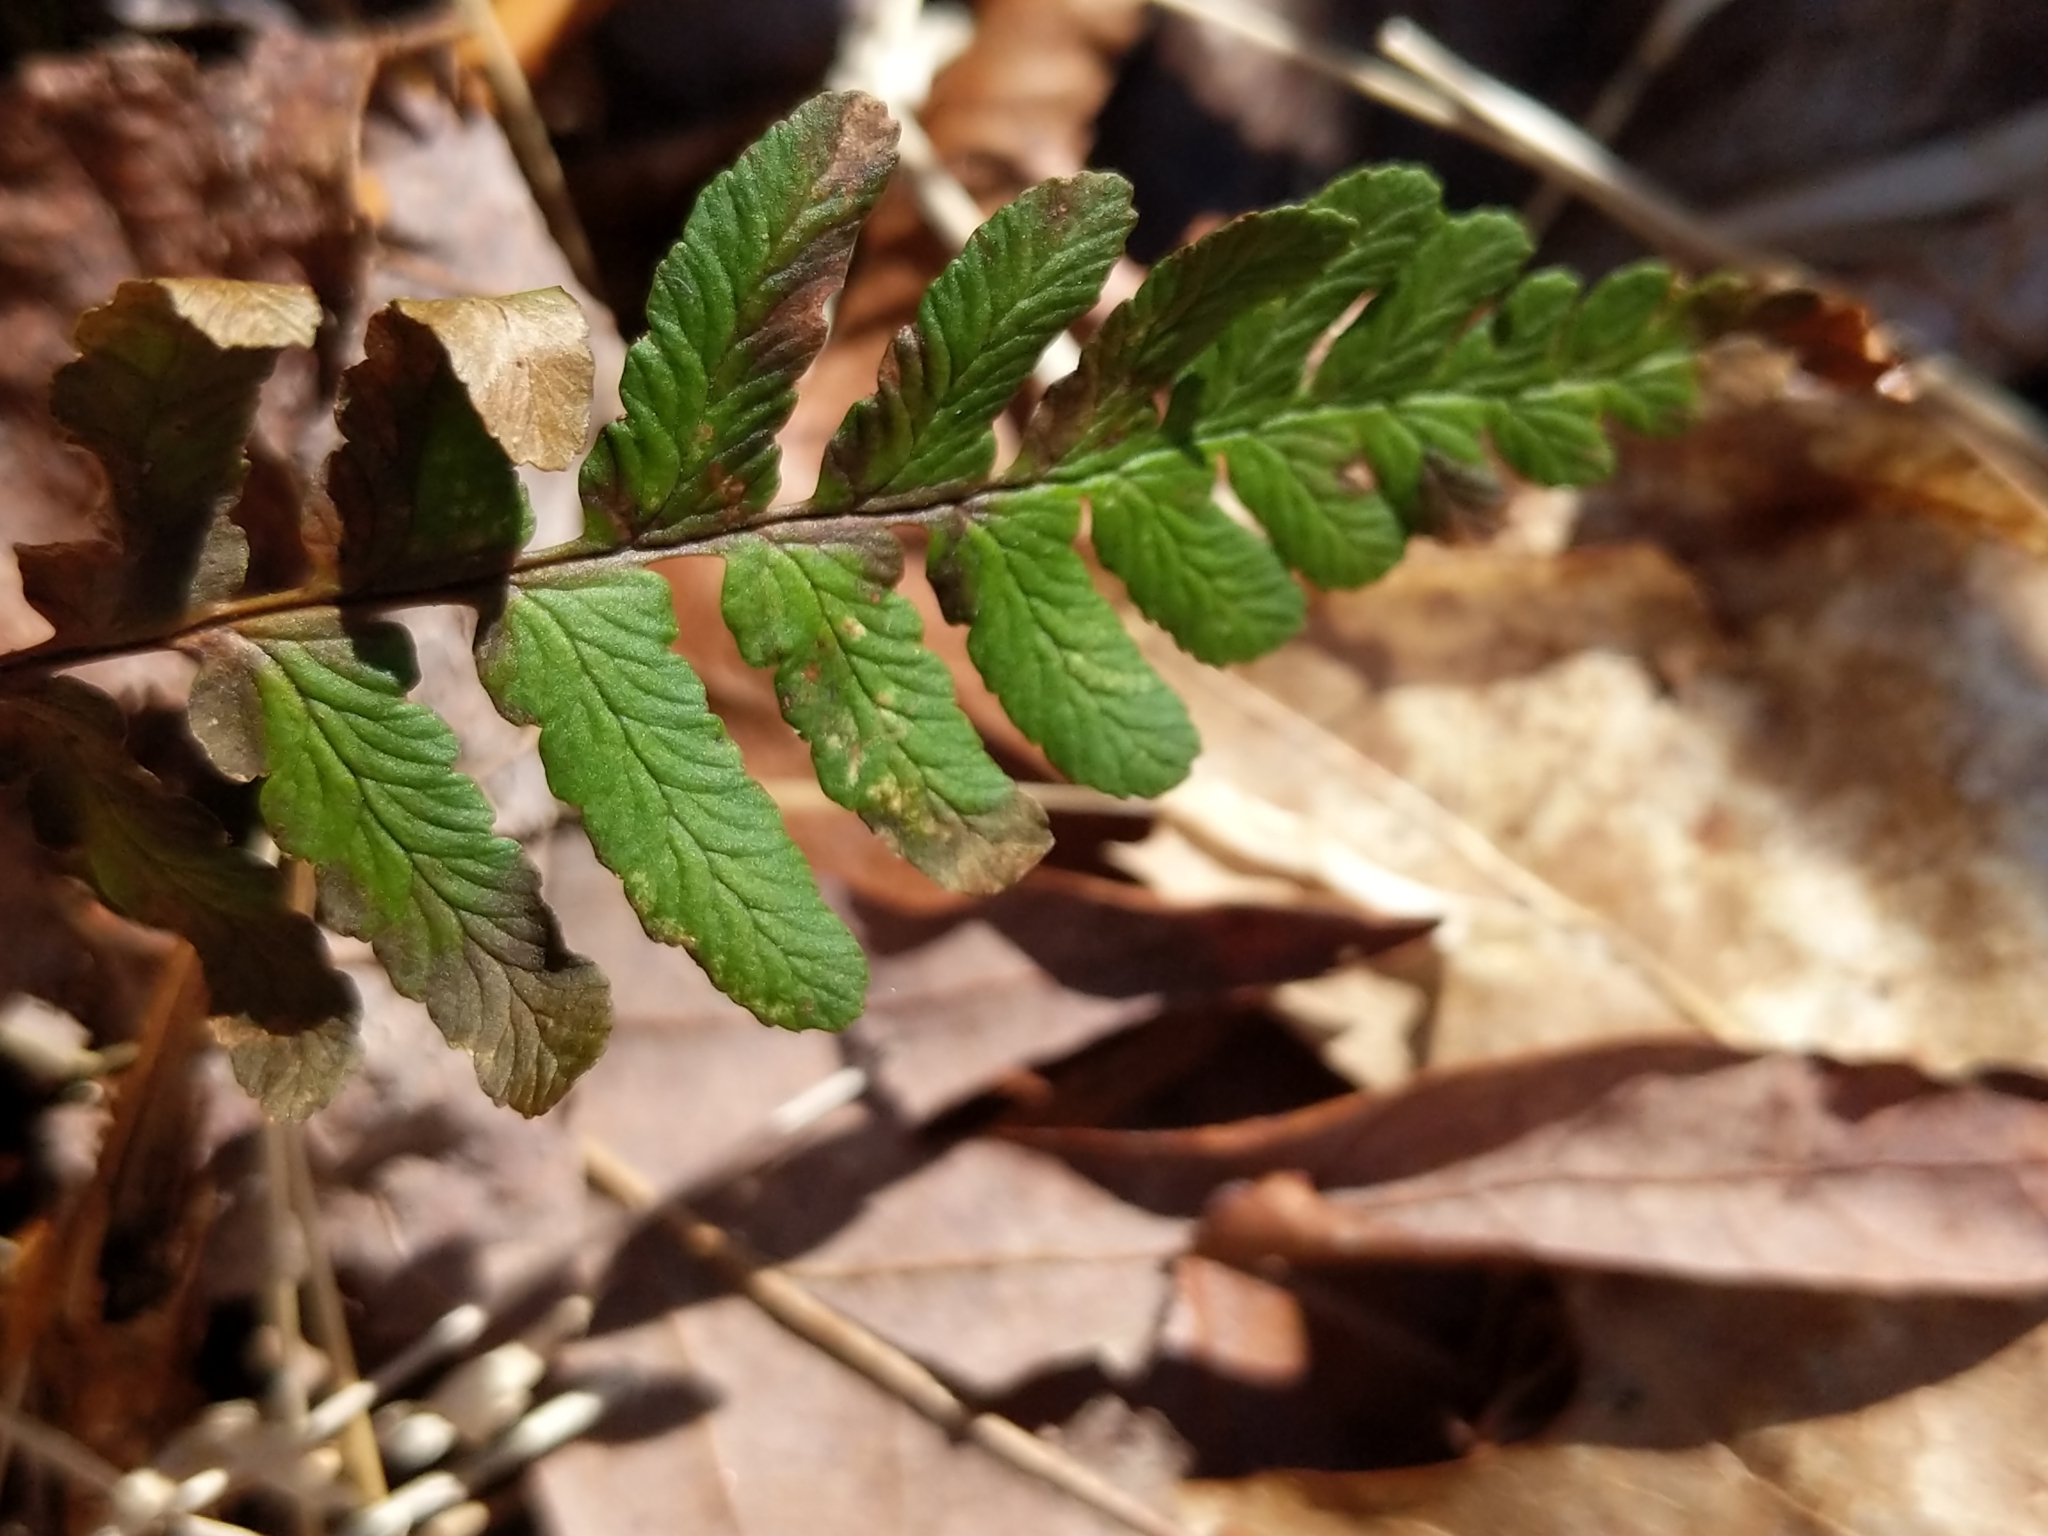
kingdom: Plantae
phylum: Tracheophyta
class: Polypodiopsida
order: Polypodiales
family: Dryopteridaceae
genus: Dryopteris
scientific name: Dryopteris marginalis
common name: Marginal wood fern
